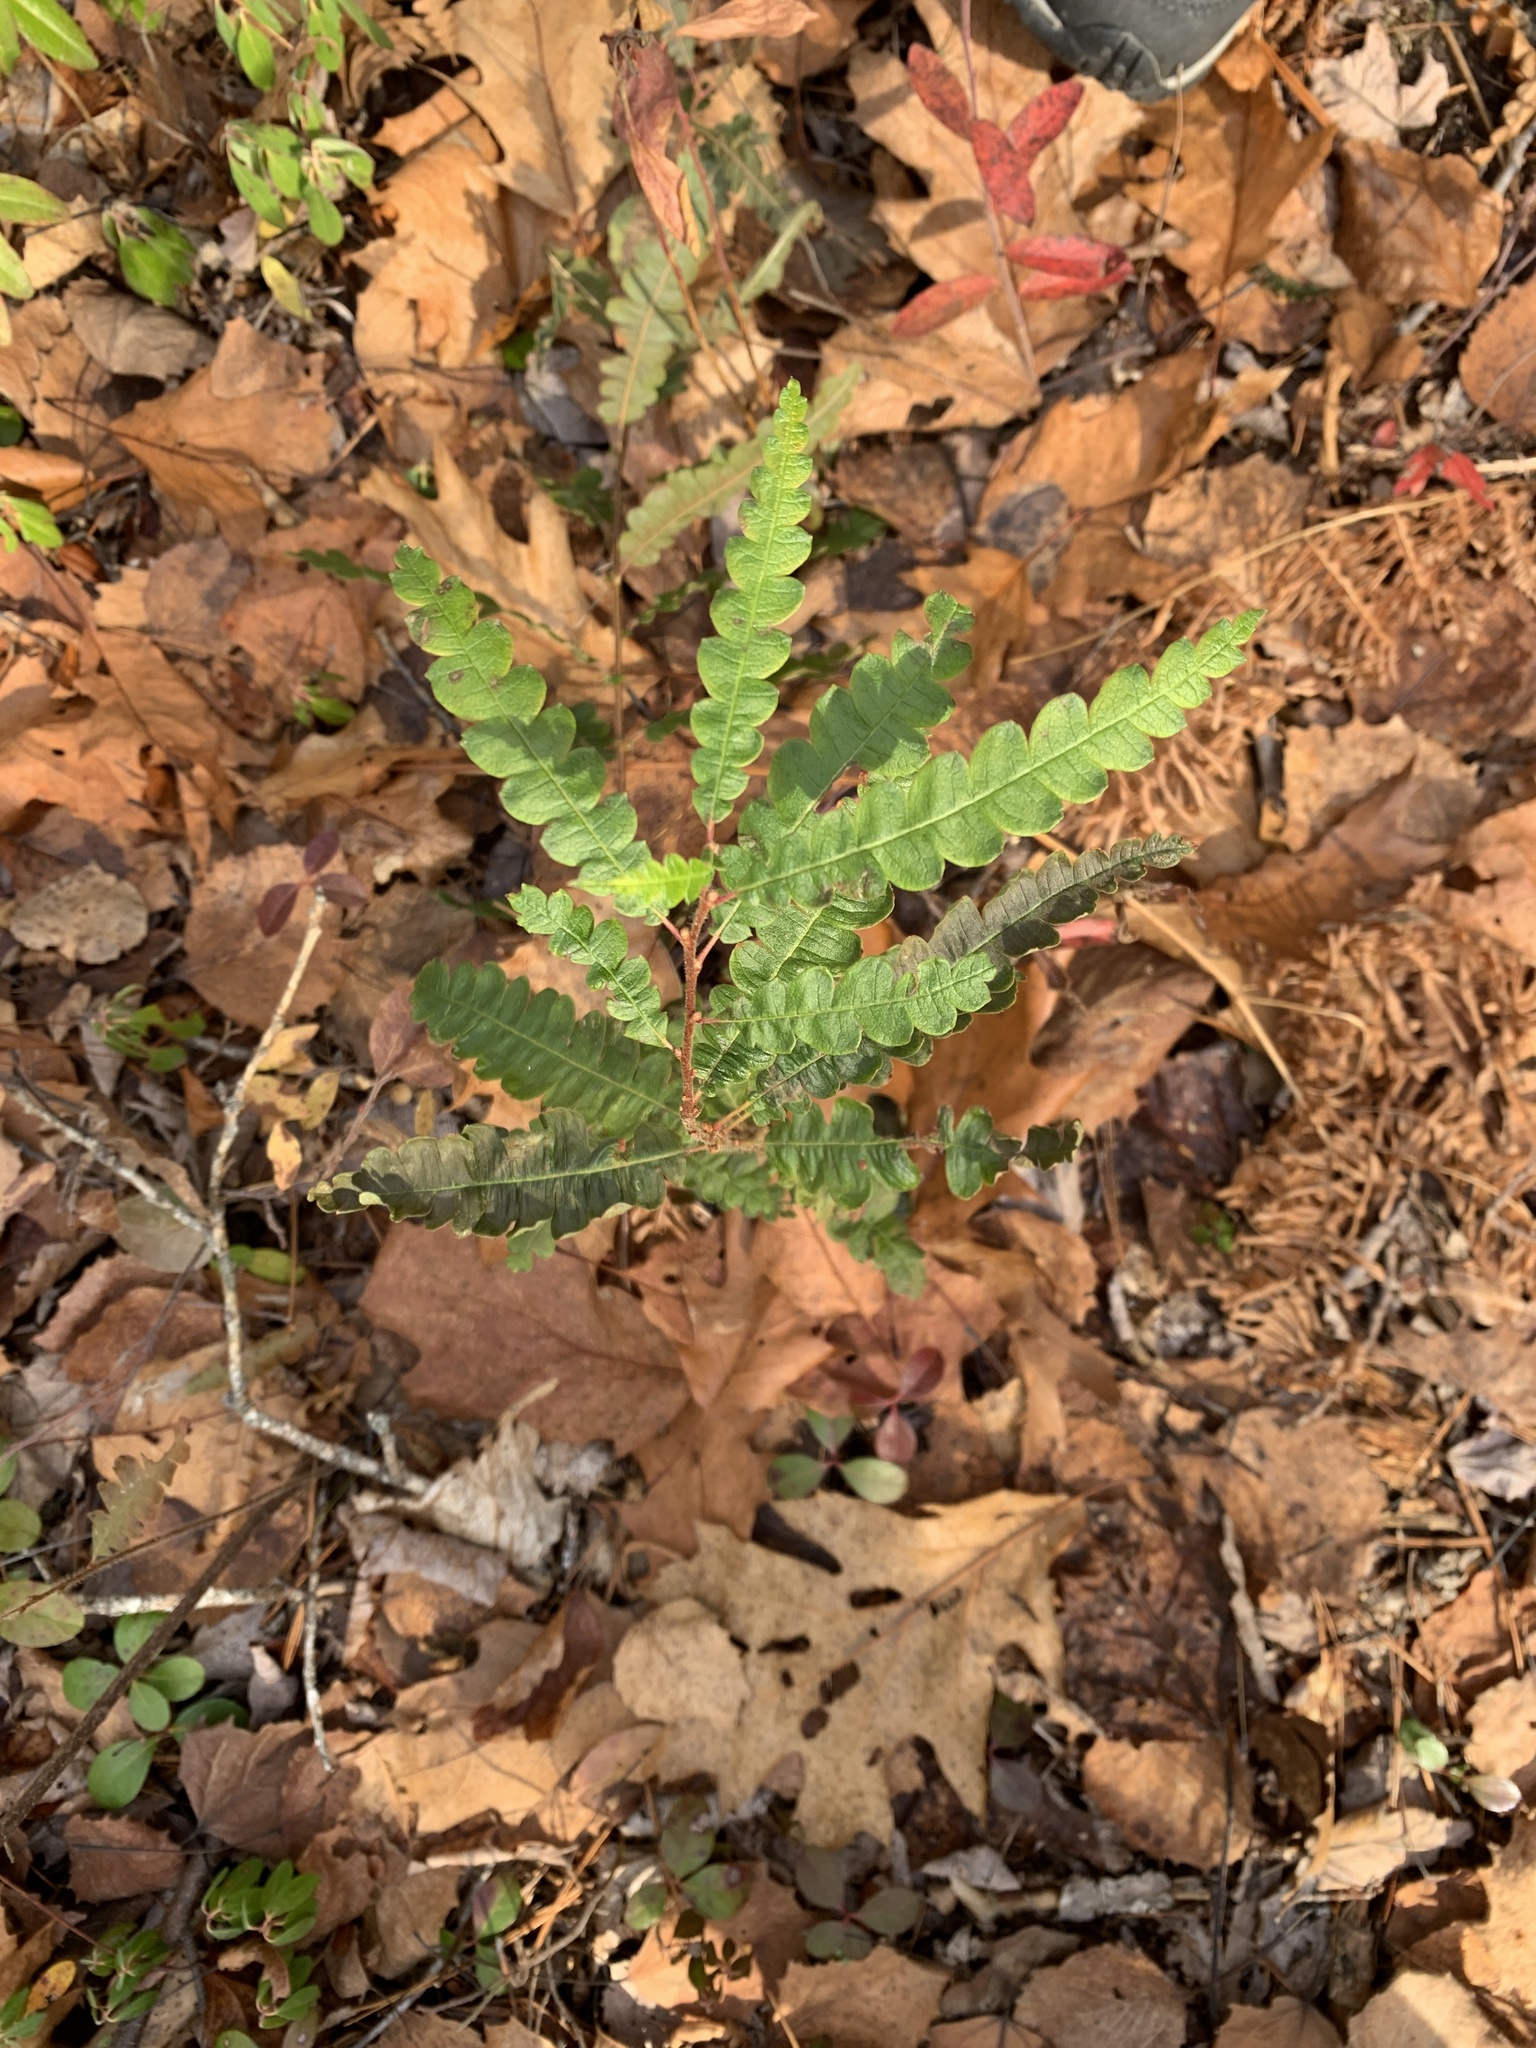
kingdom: Plantae
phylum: Tracheophyta
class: Magnoliopsida
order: Fagales
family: Myricaceae
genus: Comptonia
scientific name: Comptonia peregrina
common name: Sweet-fern
